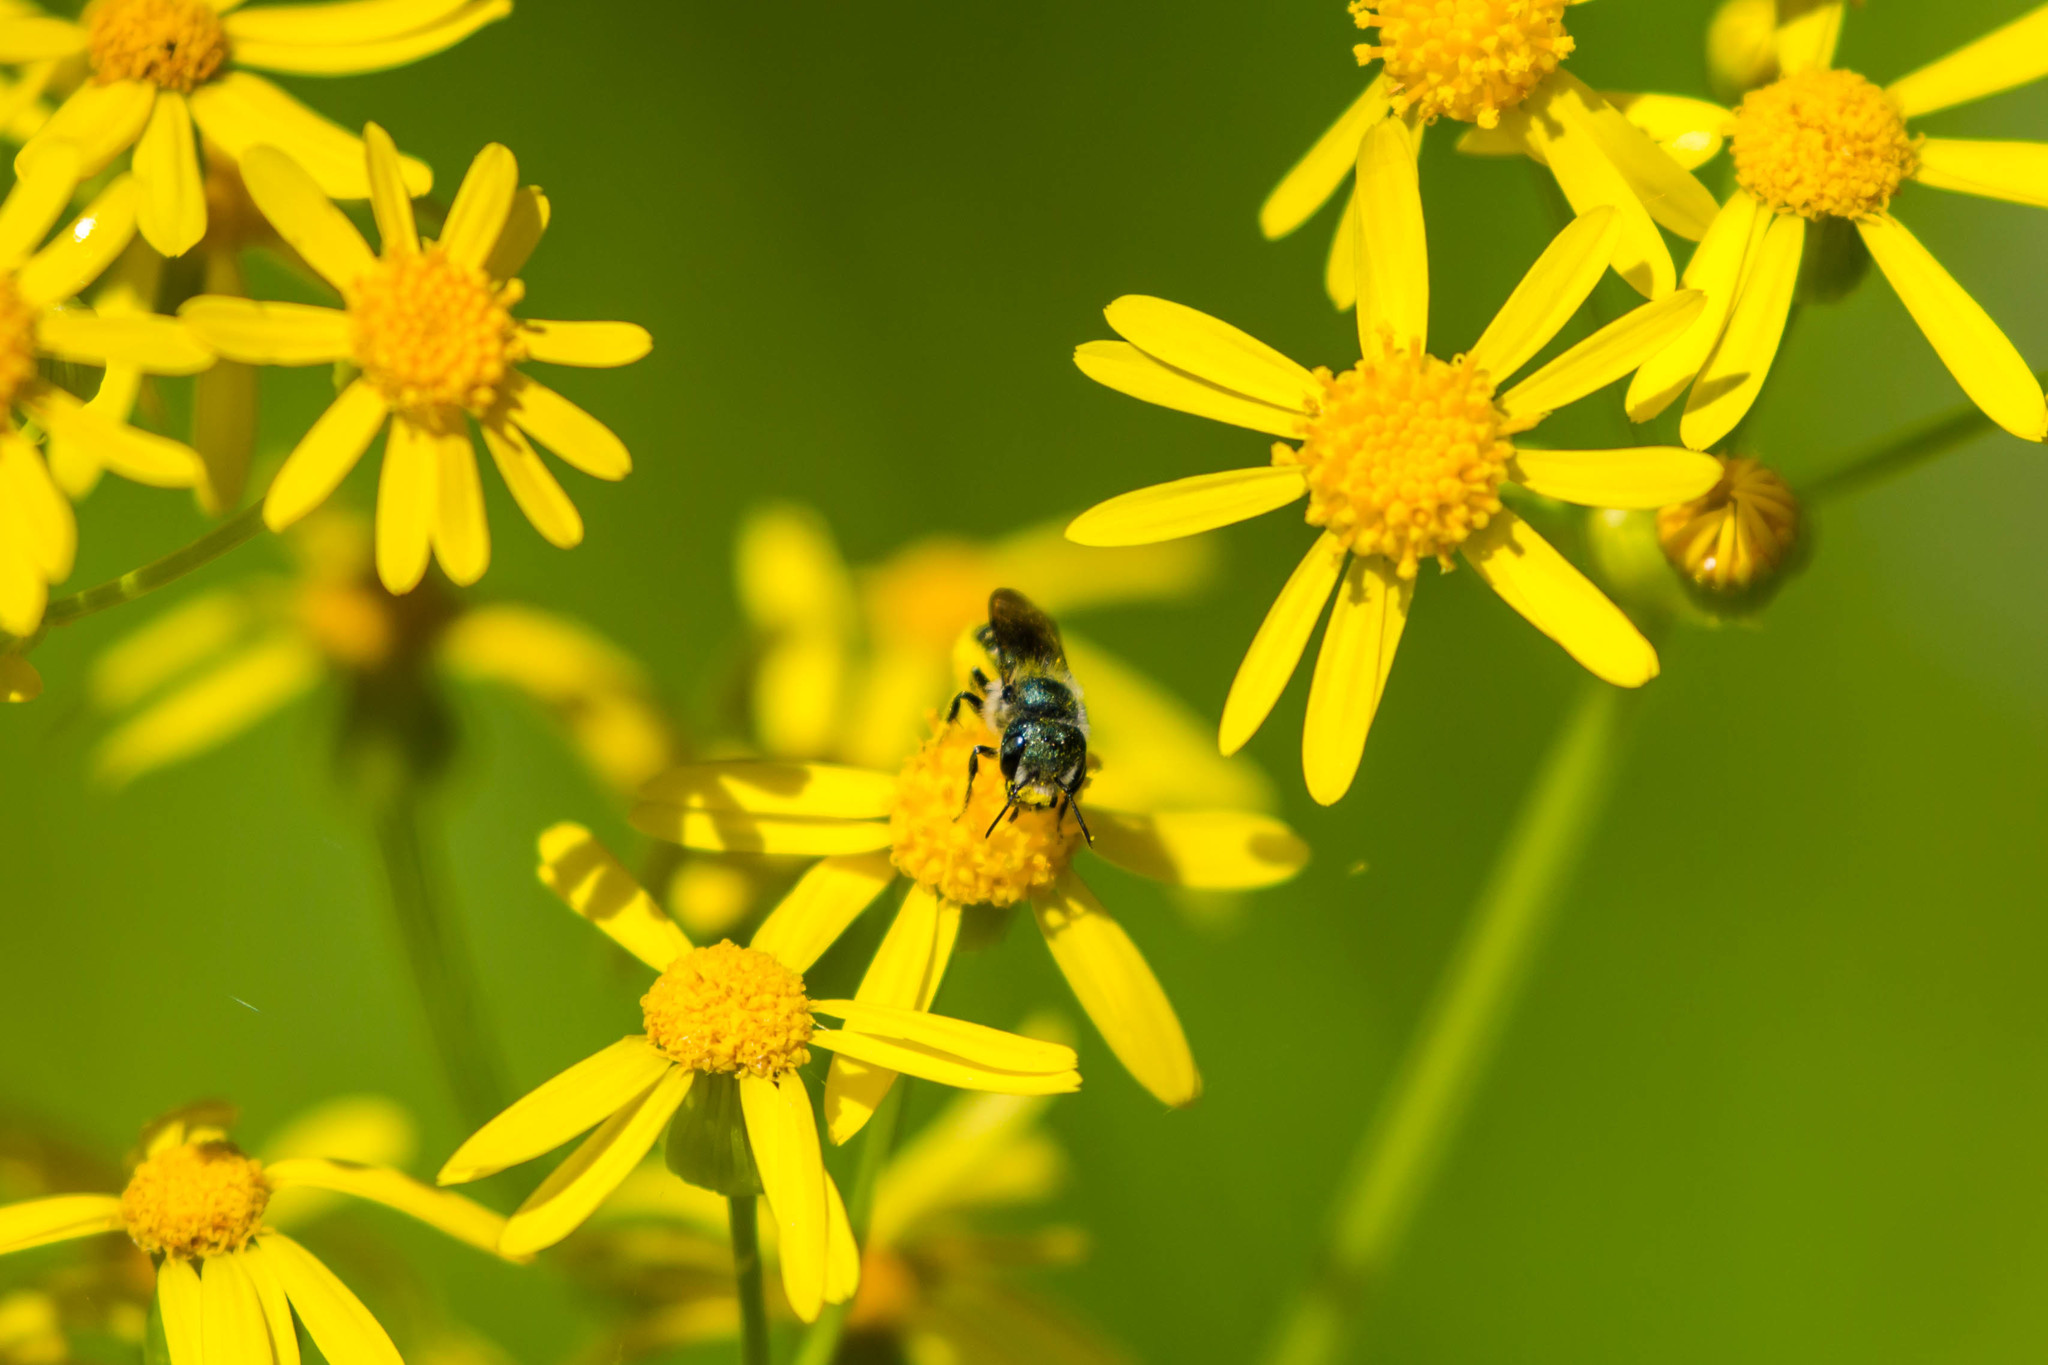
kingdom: Animalia
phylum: Arthropoda
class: Insecta
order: Hymenoptera
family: Megachilidae
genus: Osmia
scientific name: Osmia georgica
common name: Georgia mason
